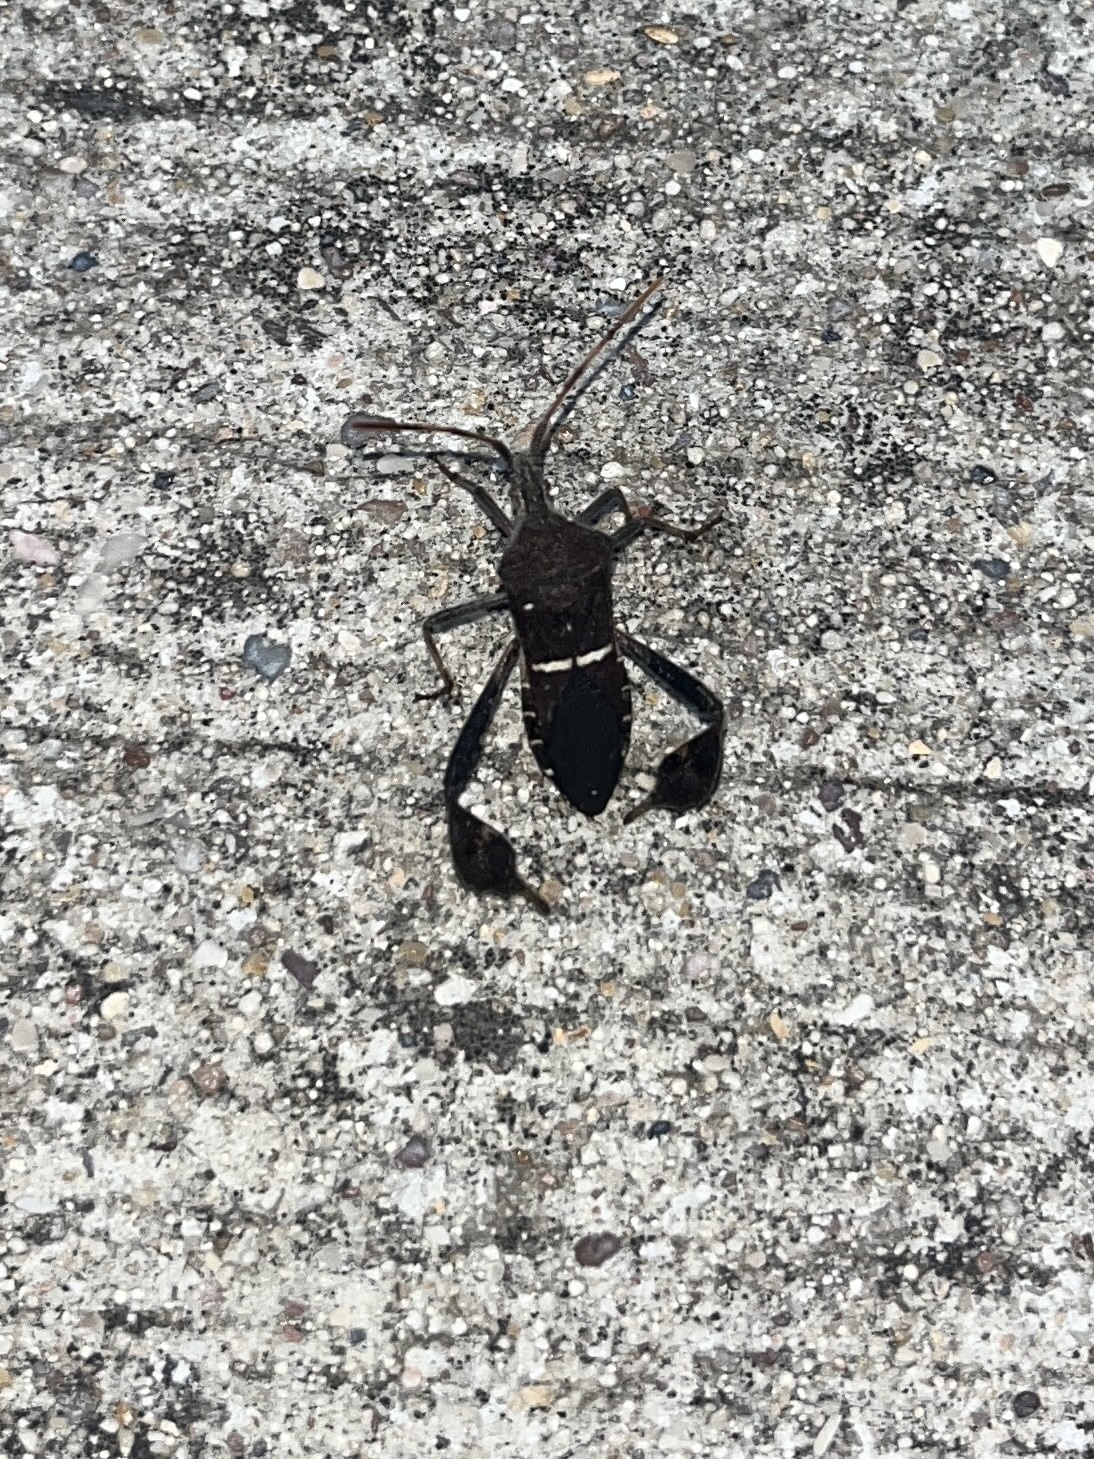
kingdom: Animalia
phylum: Arthropoda
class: Insecta
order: Hemiptera
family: Coreidae
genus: Leptoglossus
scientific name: Leptoglossus phyllopus
